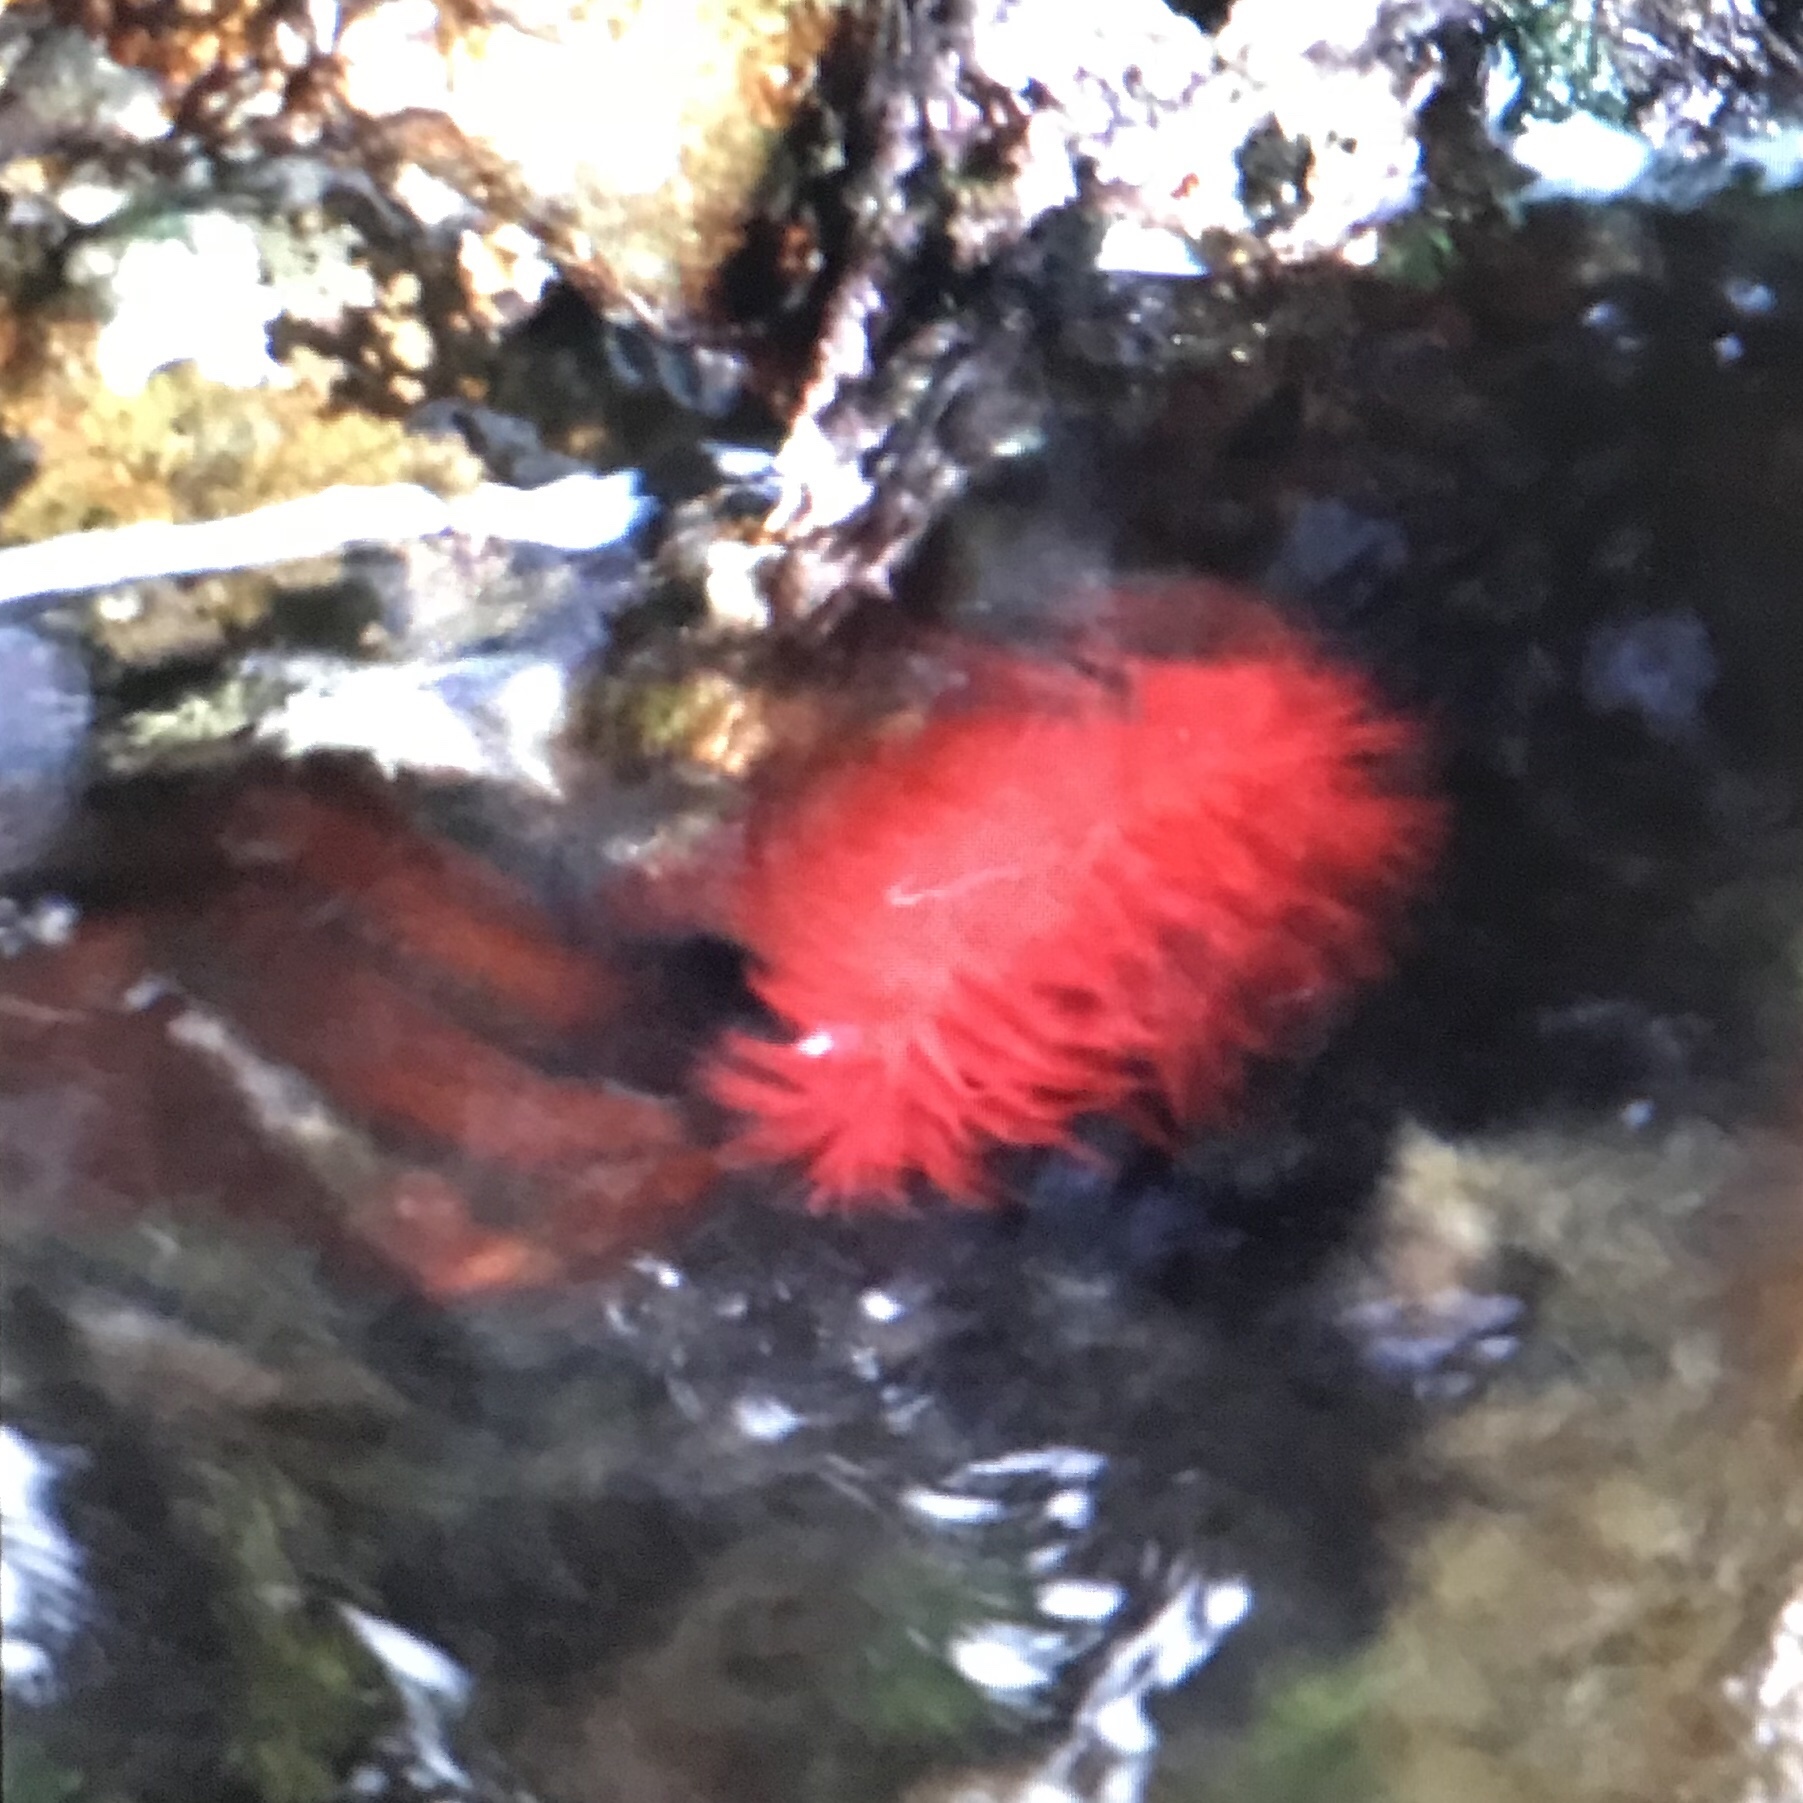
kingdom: Animalia
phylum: Cnidaria
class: Anthozoa
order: Actiniaria
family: Actiniidae
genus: Actinia
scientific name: Actinia mediterranea
